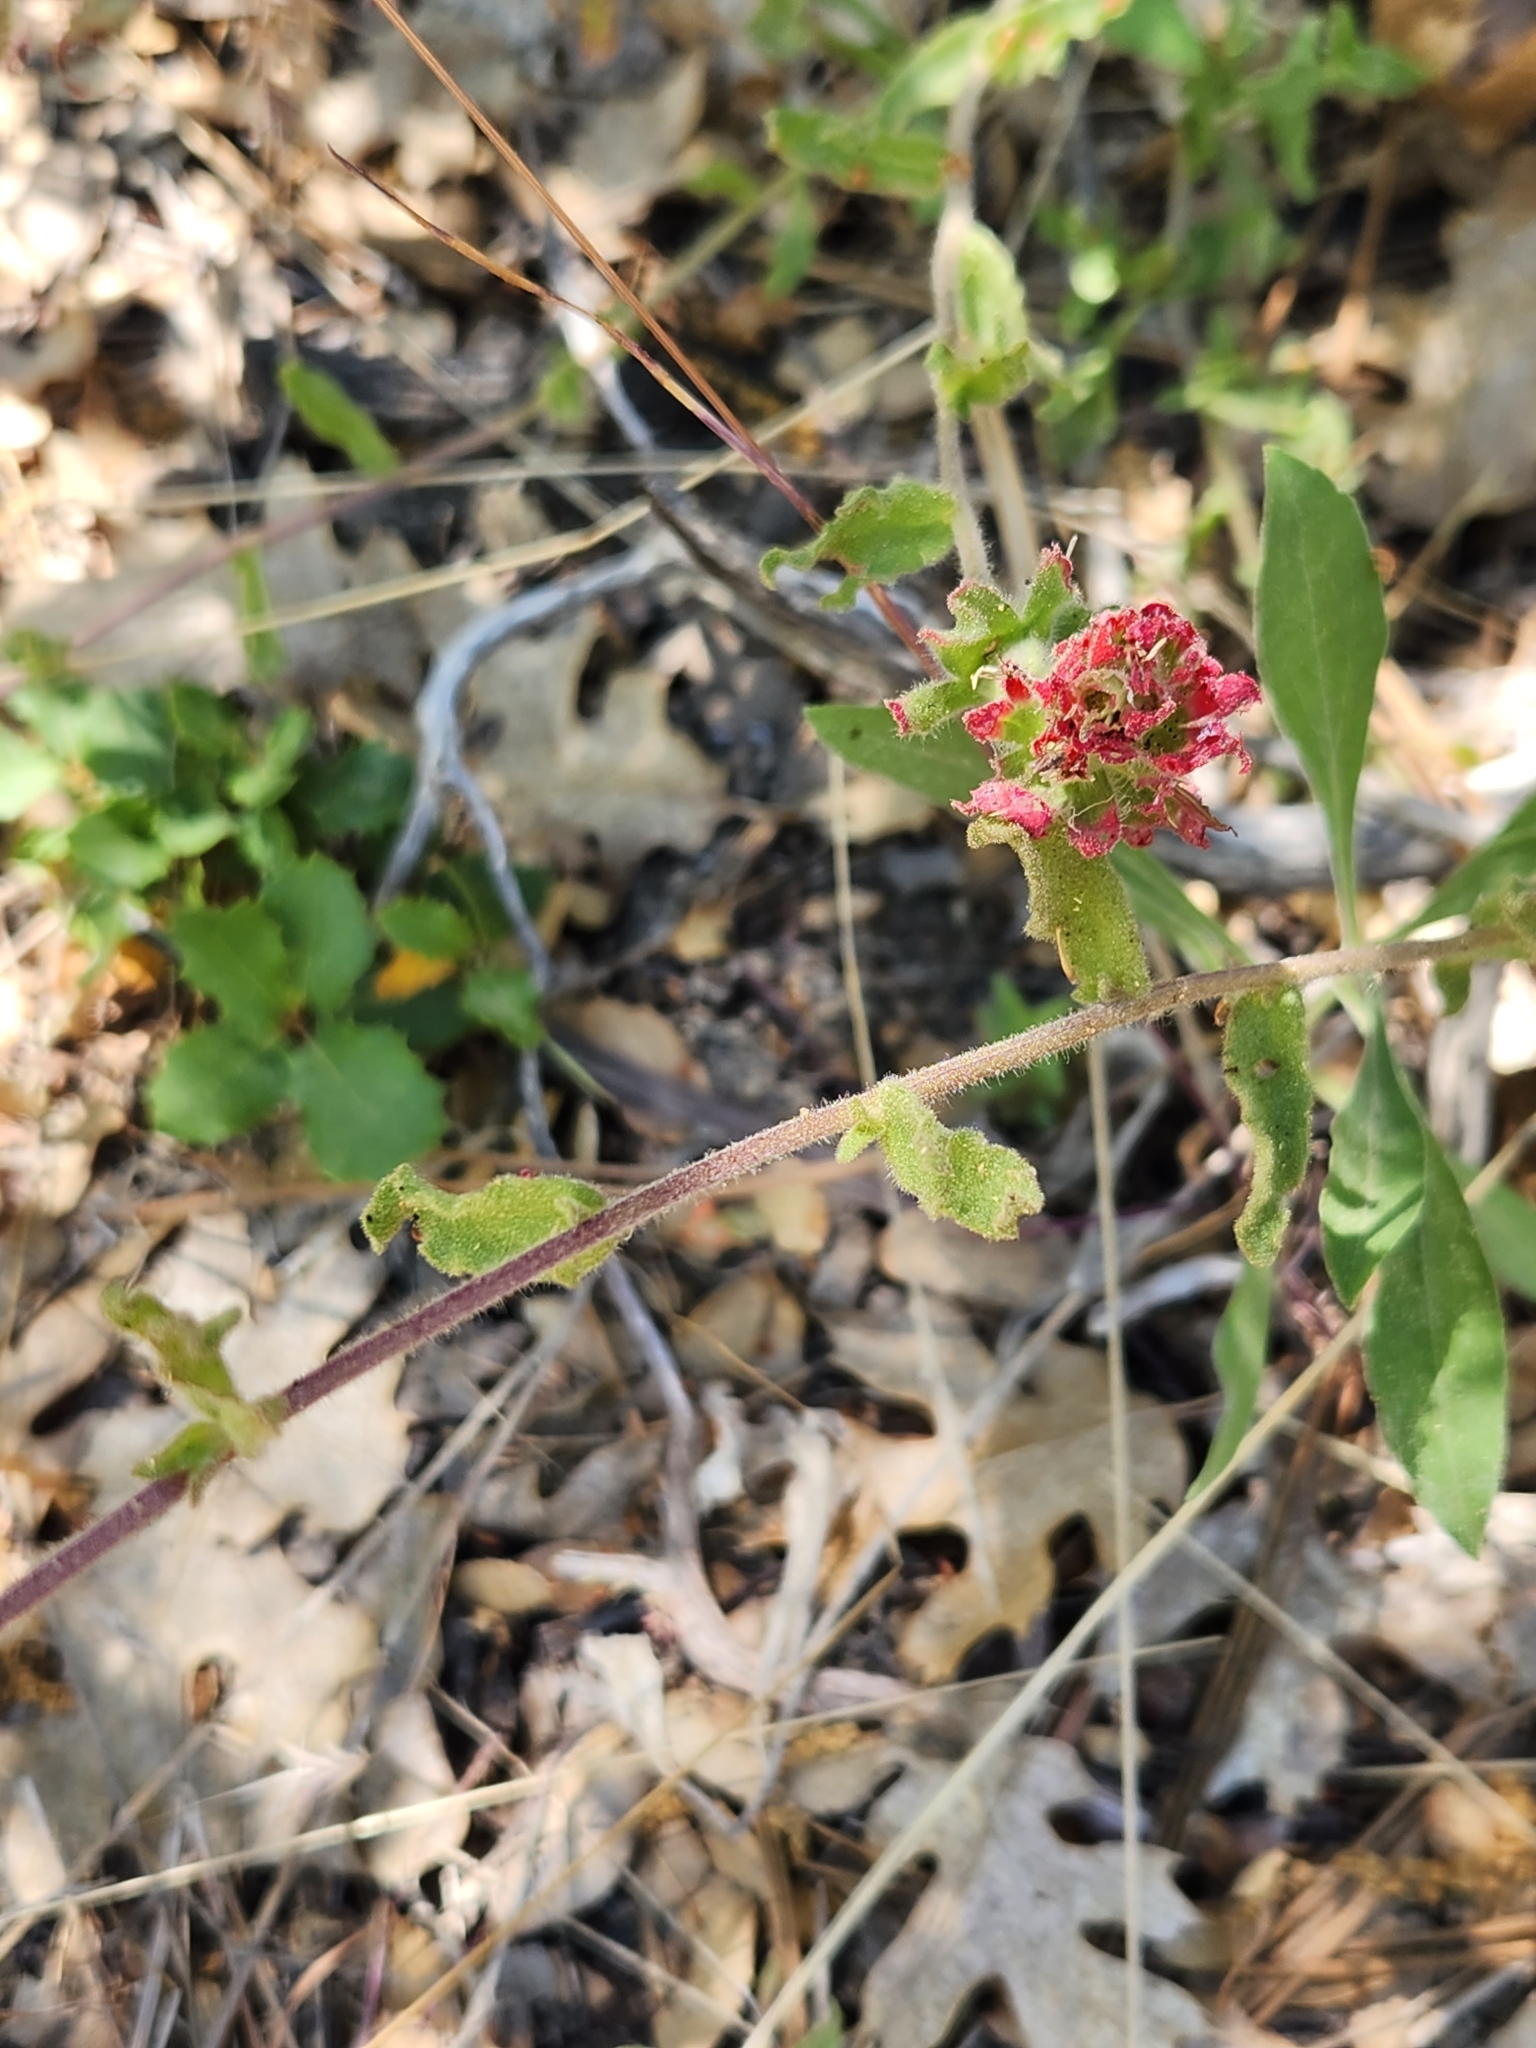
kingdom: Plantae
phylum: Tracheophyta
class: Magnoliopsida
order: Lamiales
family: Orobanchaceae
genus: Castilleja
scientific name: Castilleja martini
